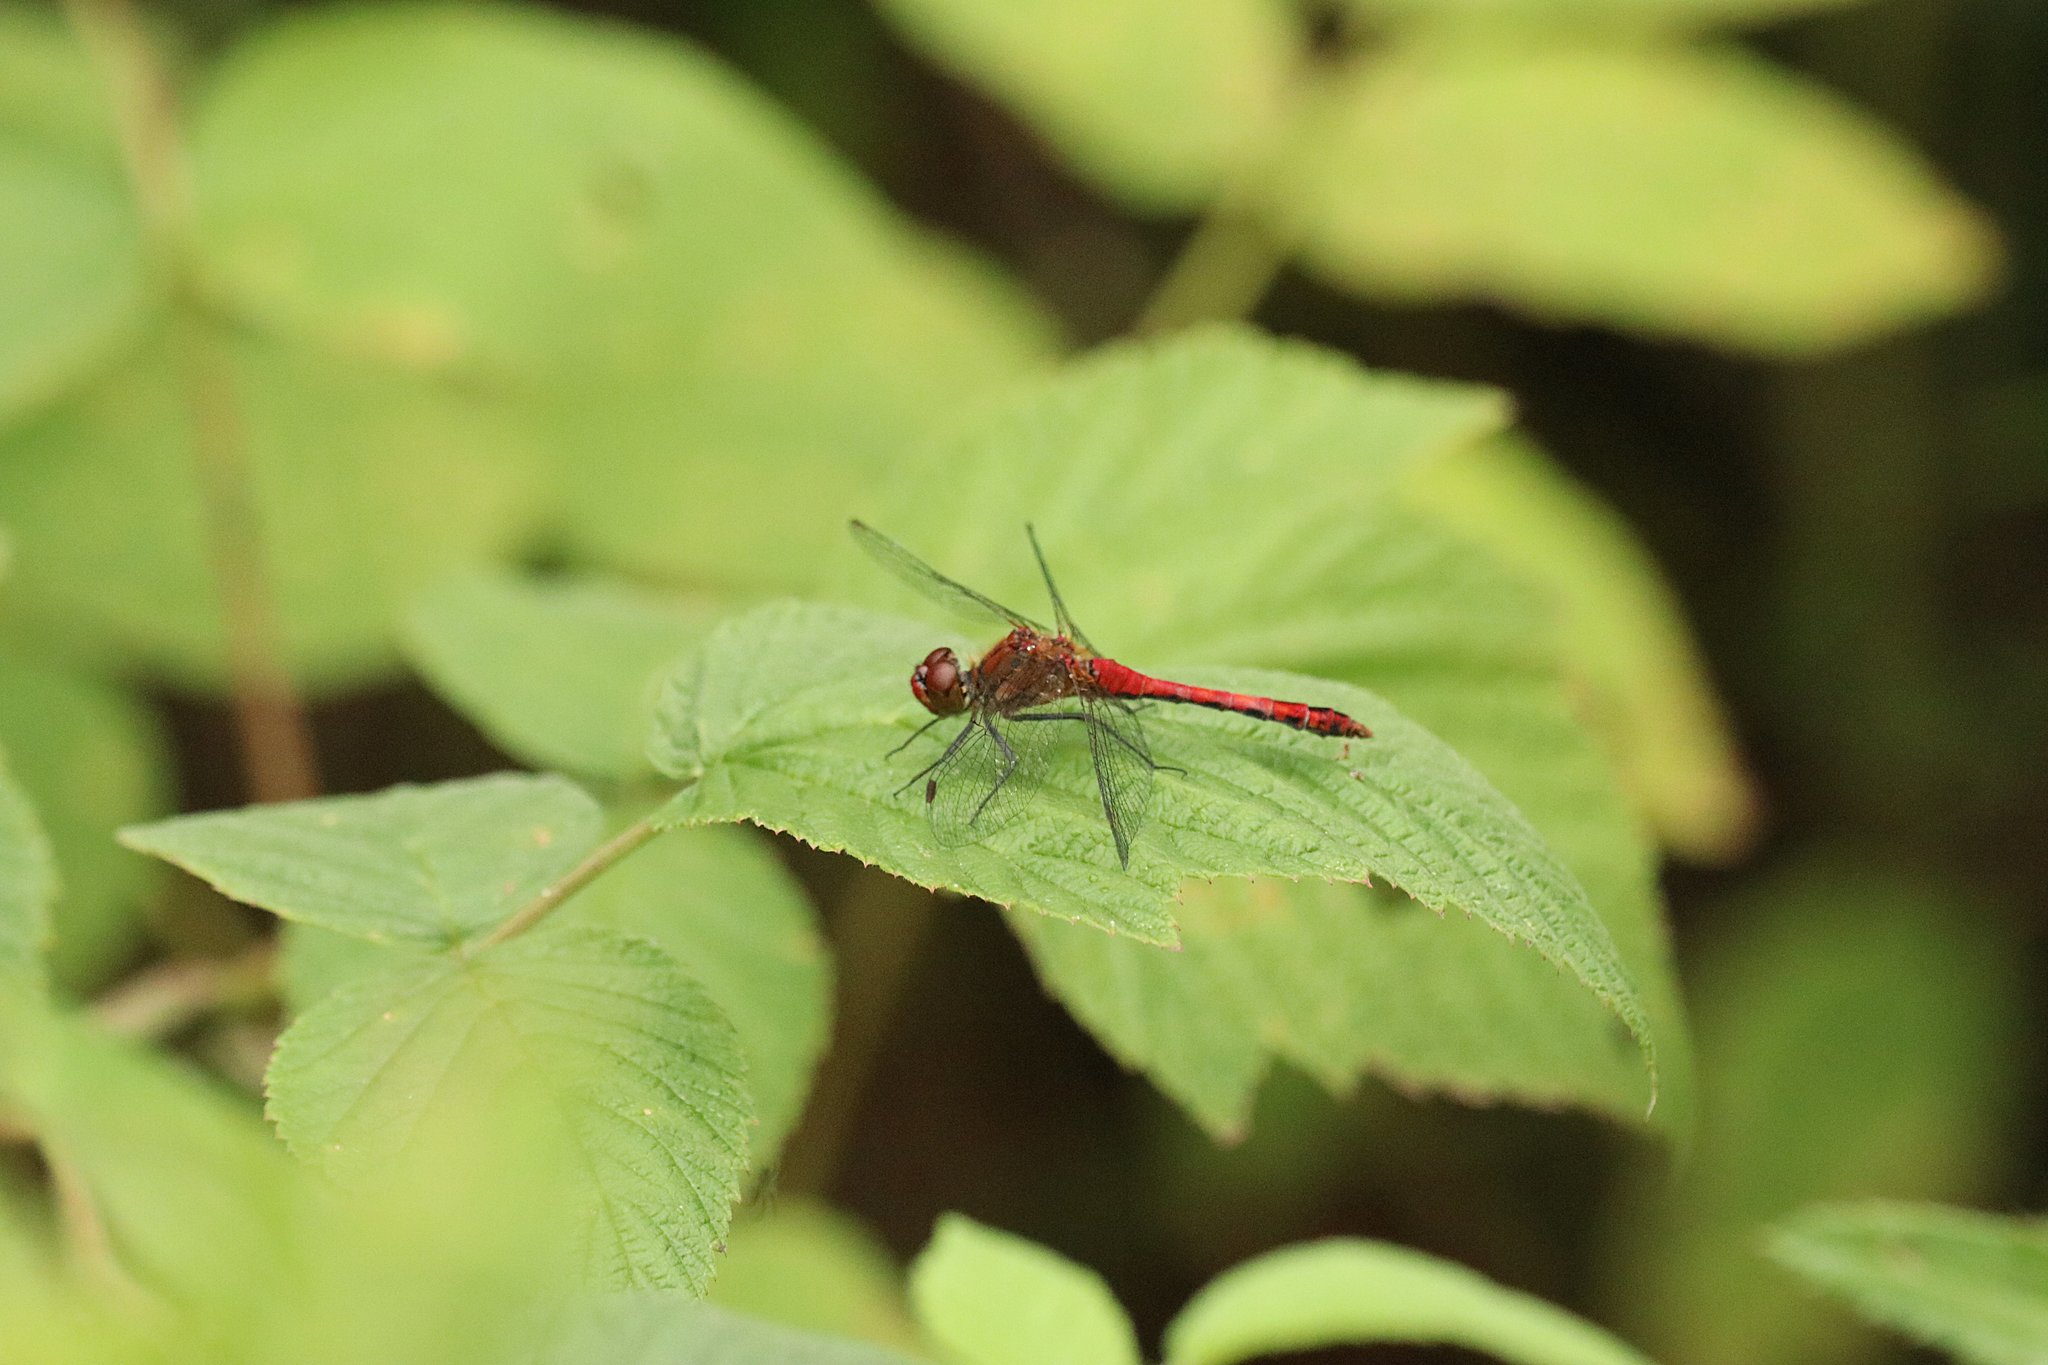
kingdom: Animalia
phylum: Arthropoda
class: Insecta
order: Odonata
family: Libellulidae
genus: Sympetrum
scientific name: Sympetrum sanguineum
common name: Ruddy darter
